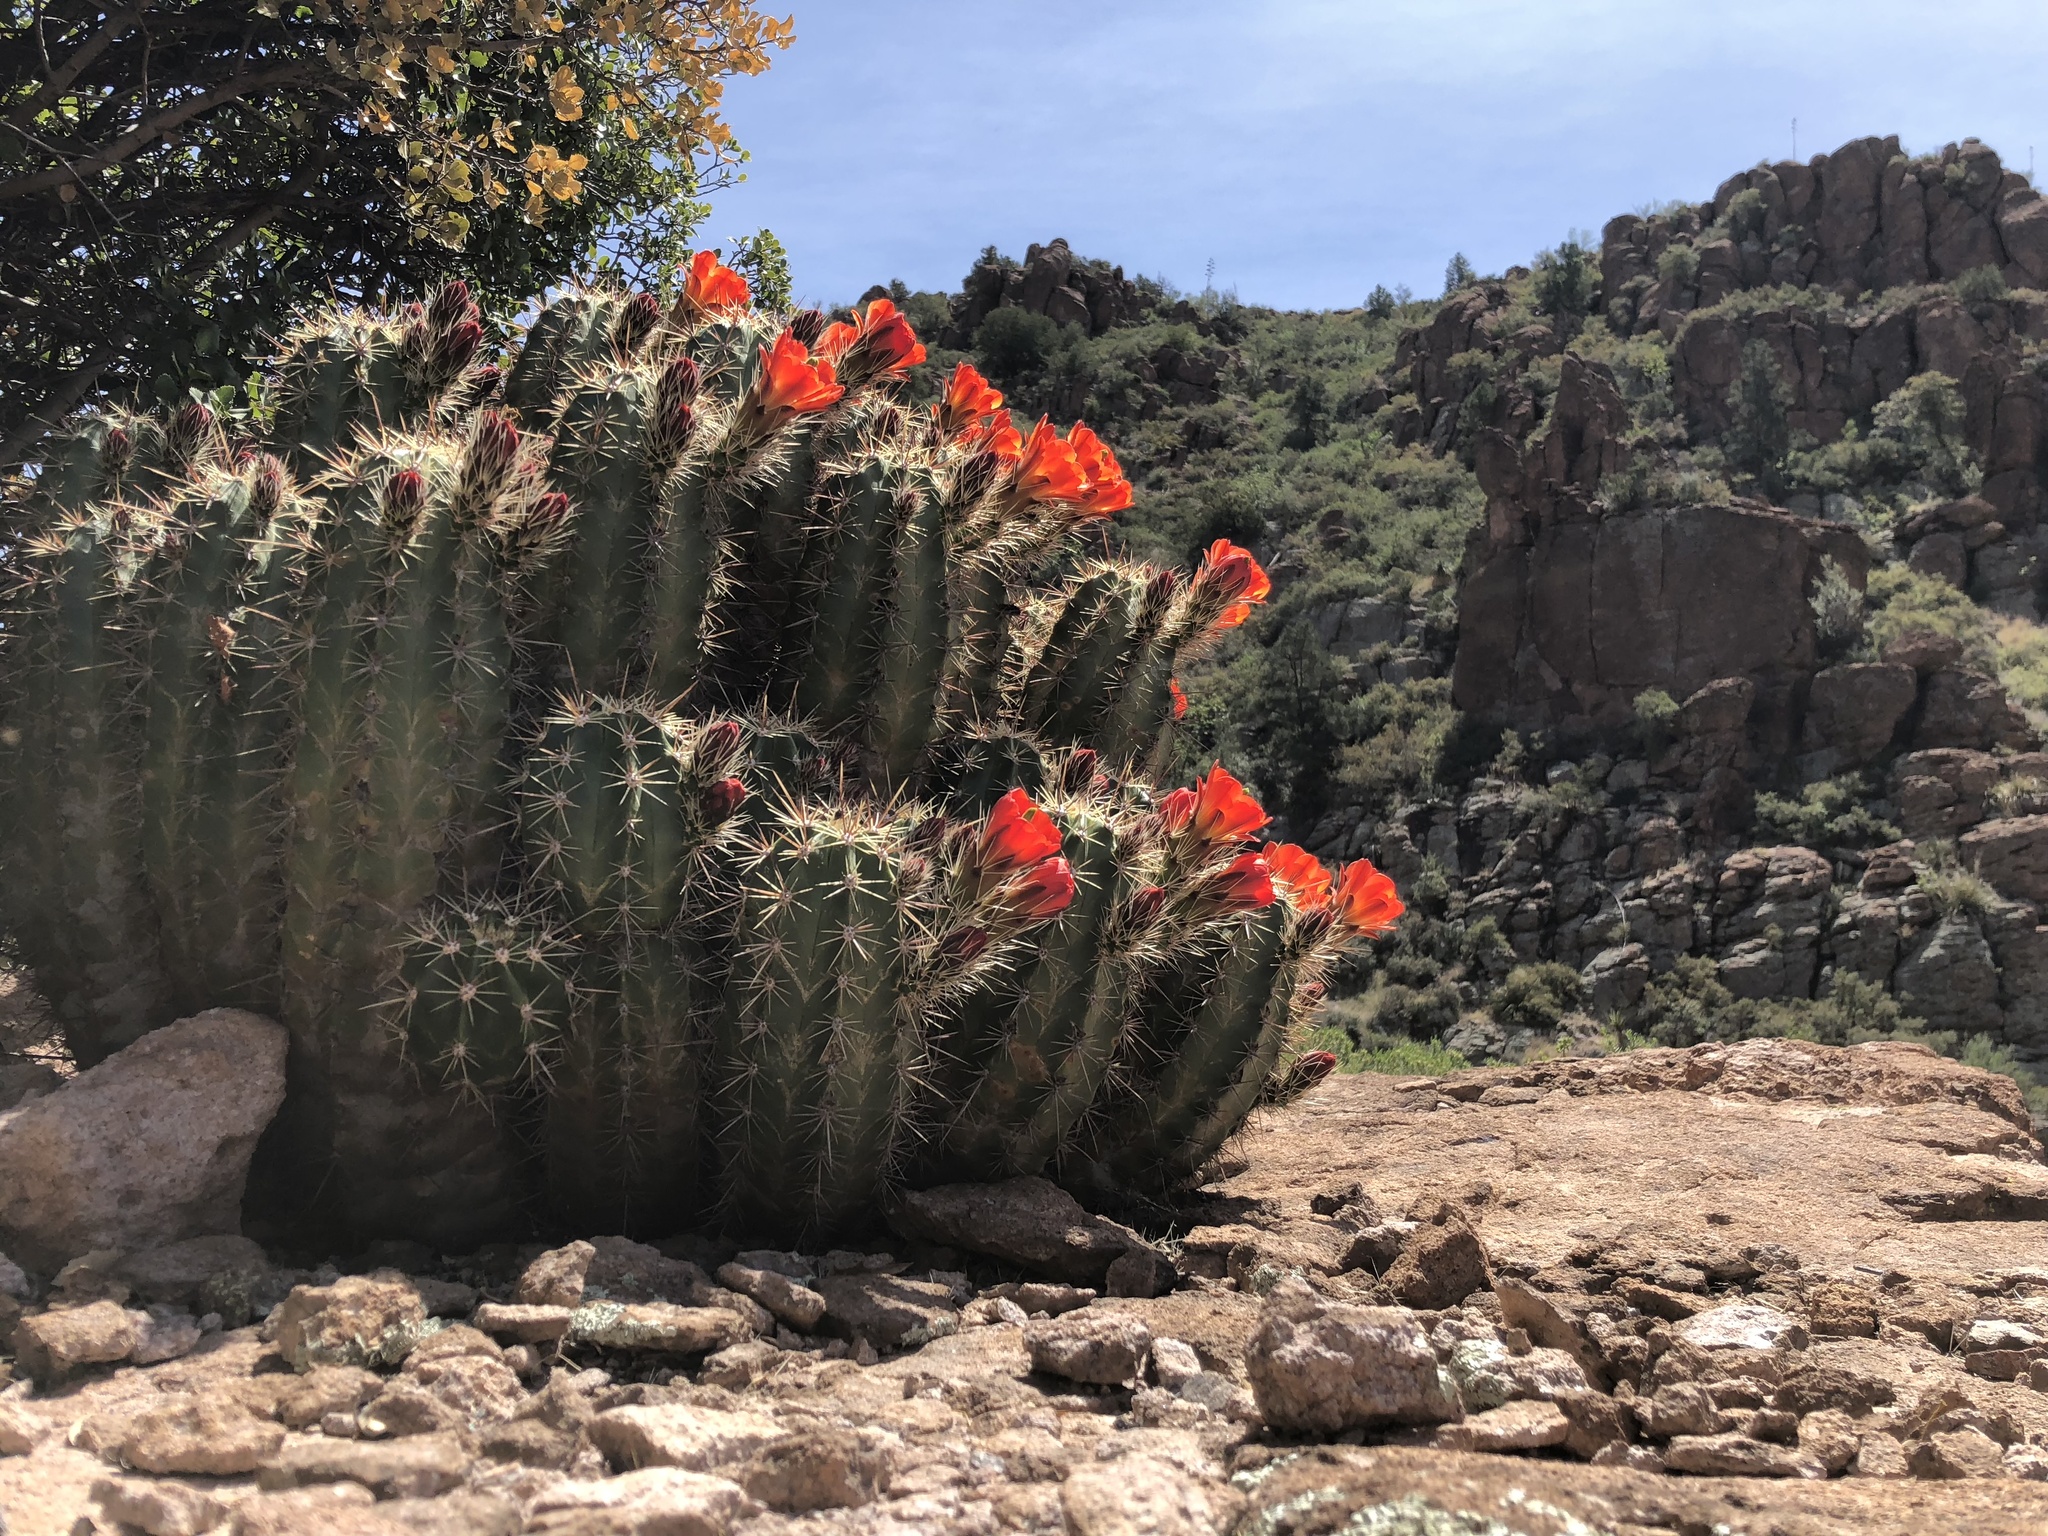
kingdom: Plantae
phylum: Tracheophyta
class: Magnoliopsida
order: Caryophyllales
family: Cactaceae
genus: Echinocereus
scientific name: Echinocereus arizonicus
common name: Arizona hedgehog cactus
